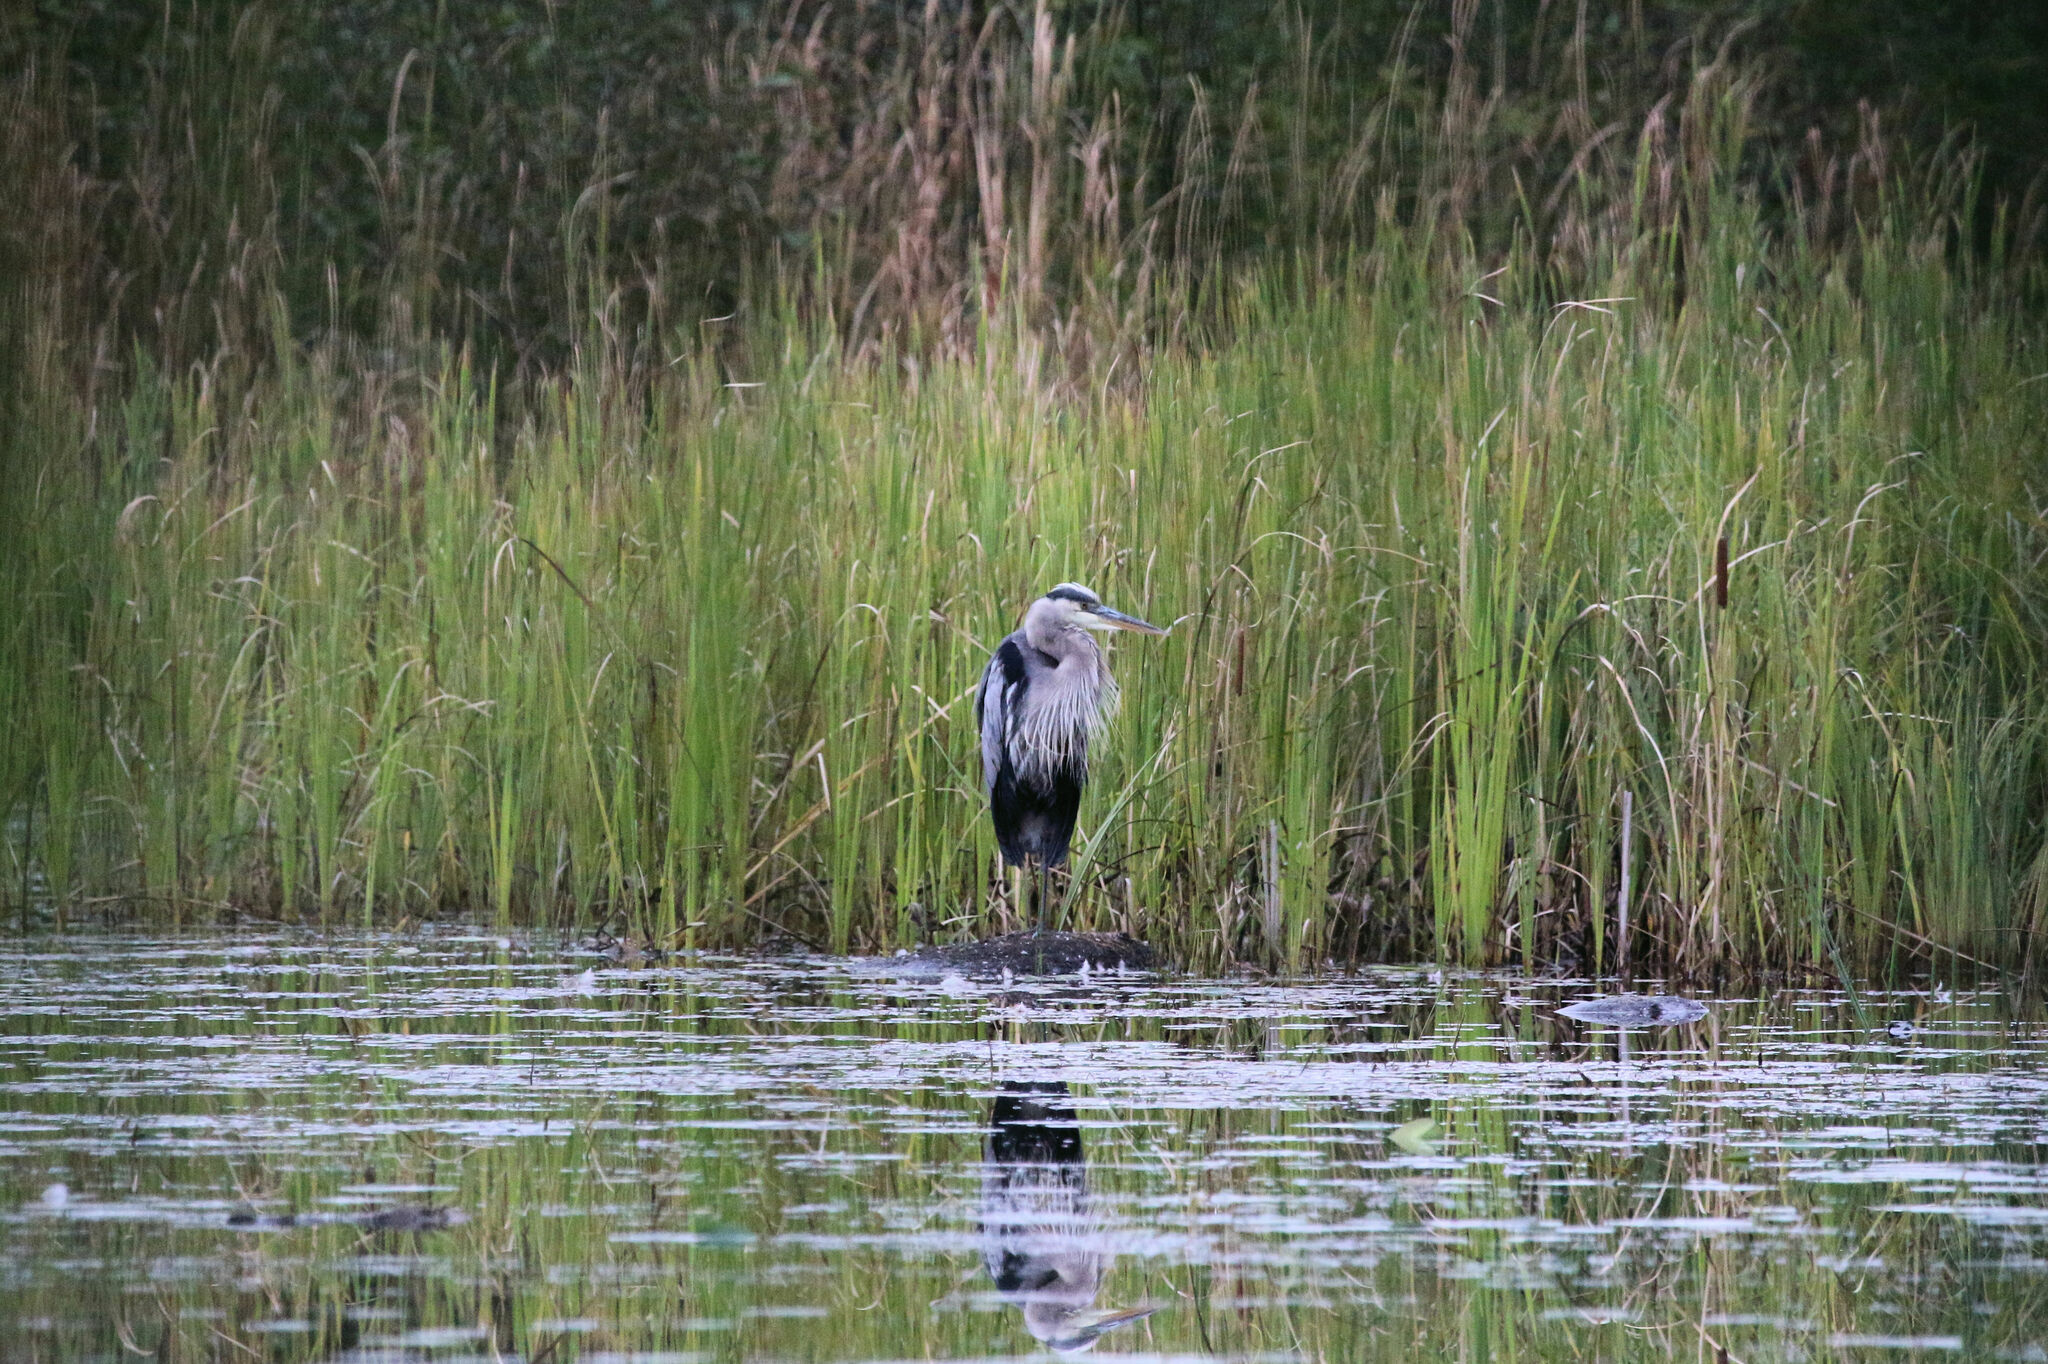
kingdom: Animalia
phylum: Chordata
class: Aves
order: Pelecaniformes
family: Ardeidae
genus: Ardea
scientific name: Ardea herodias
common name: Great blue heron
